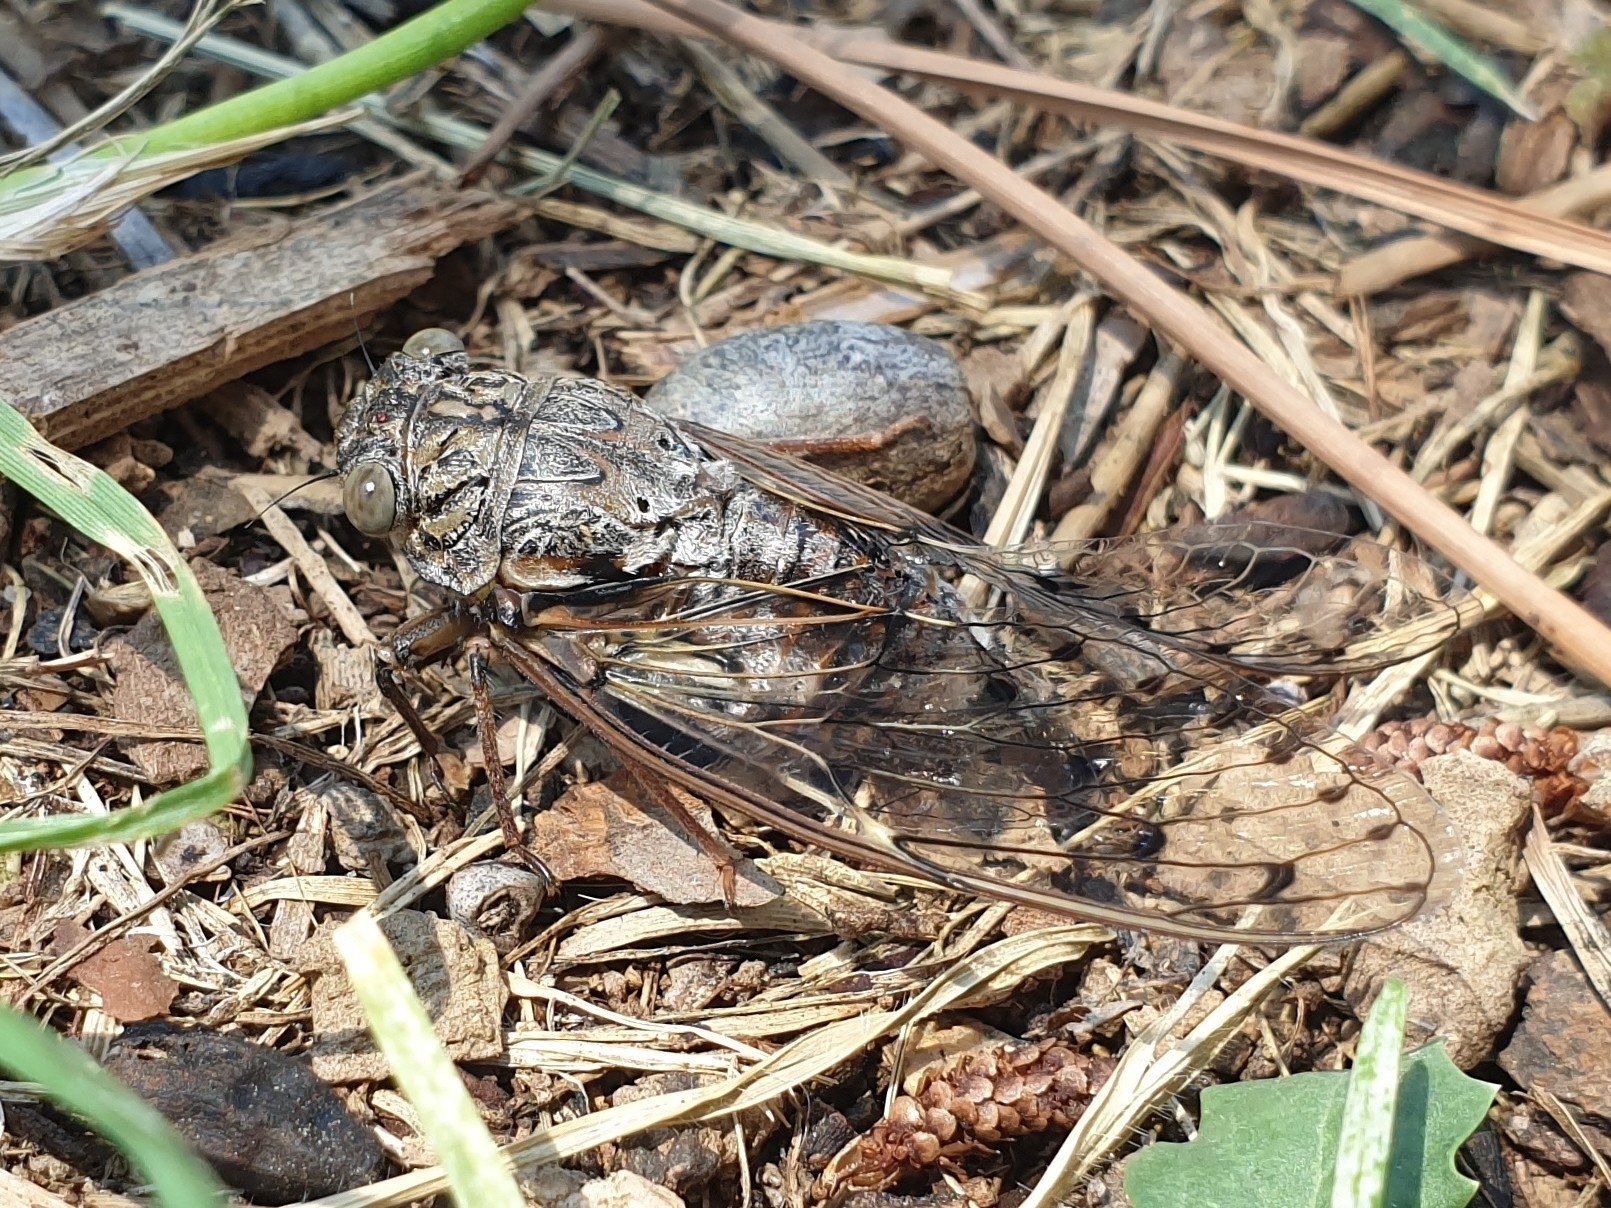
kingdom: Animalia
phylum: Arthropoda
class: Insecta
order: Hemiptera
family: Cicadidae
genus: Cicada
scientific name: Cicada orni
